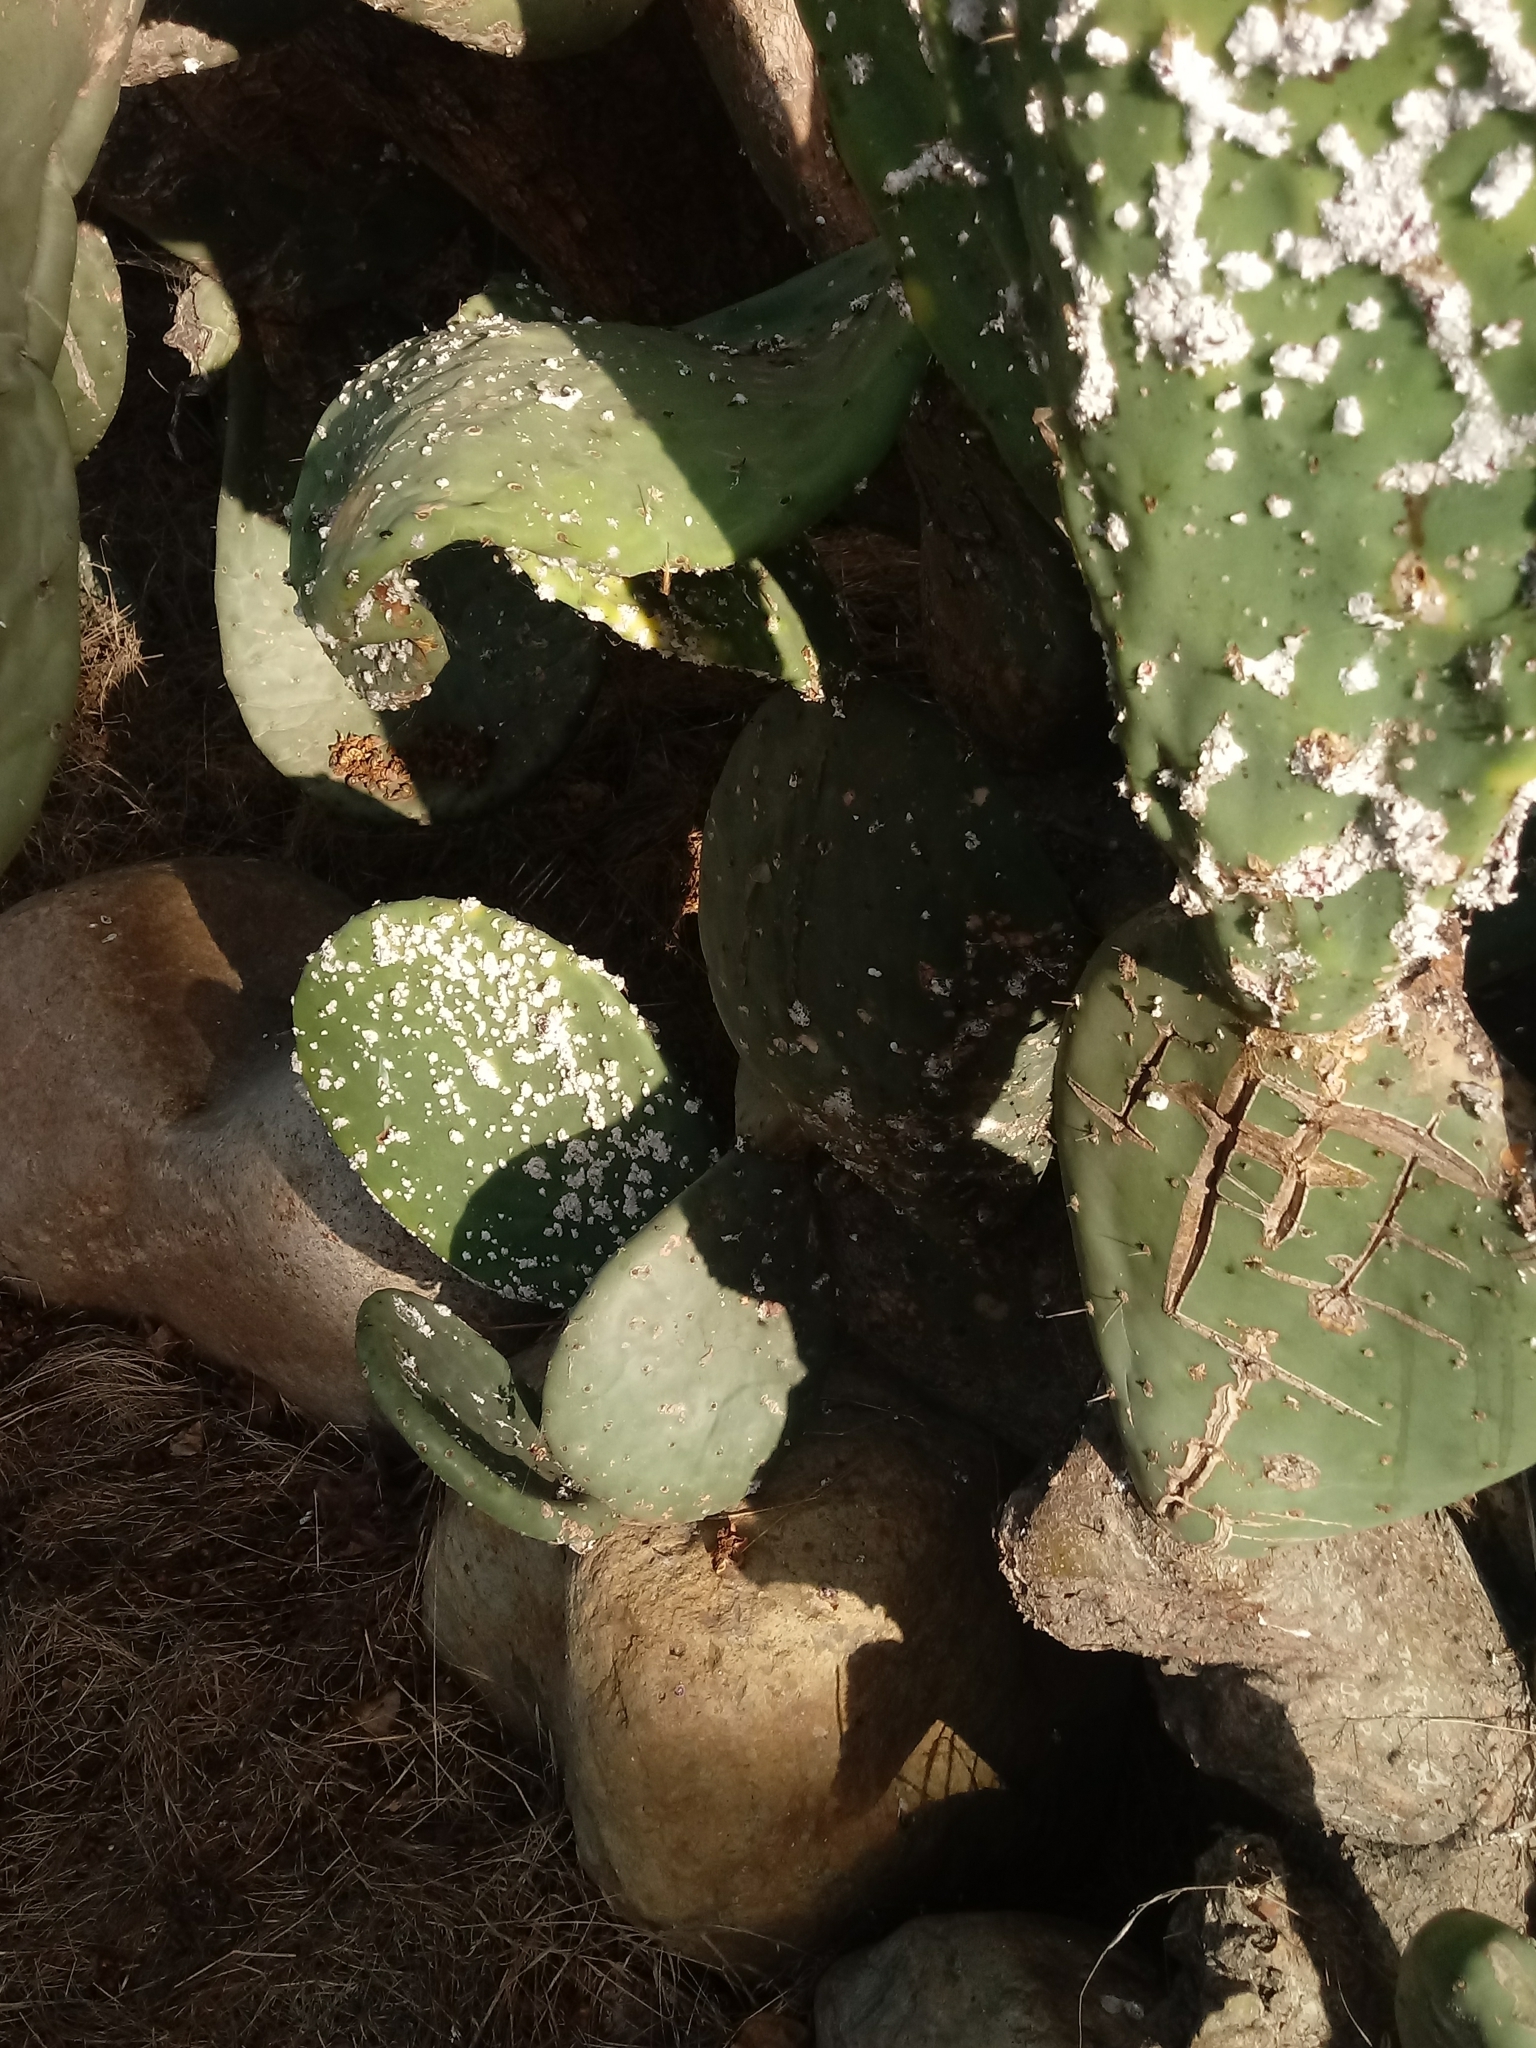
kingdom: Animalia
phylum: Arthropoda
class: Insecta
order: Hemiptera
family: Dactylopiidae
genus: Dactylopius
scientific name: Dactylopius coccus
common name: Cochineal
